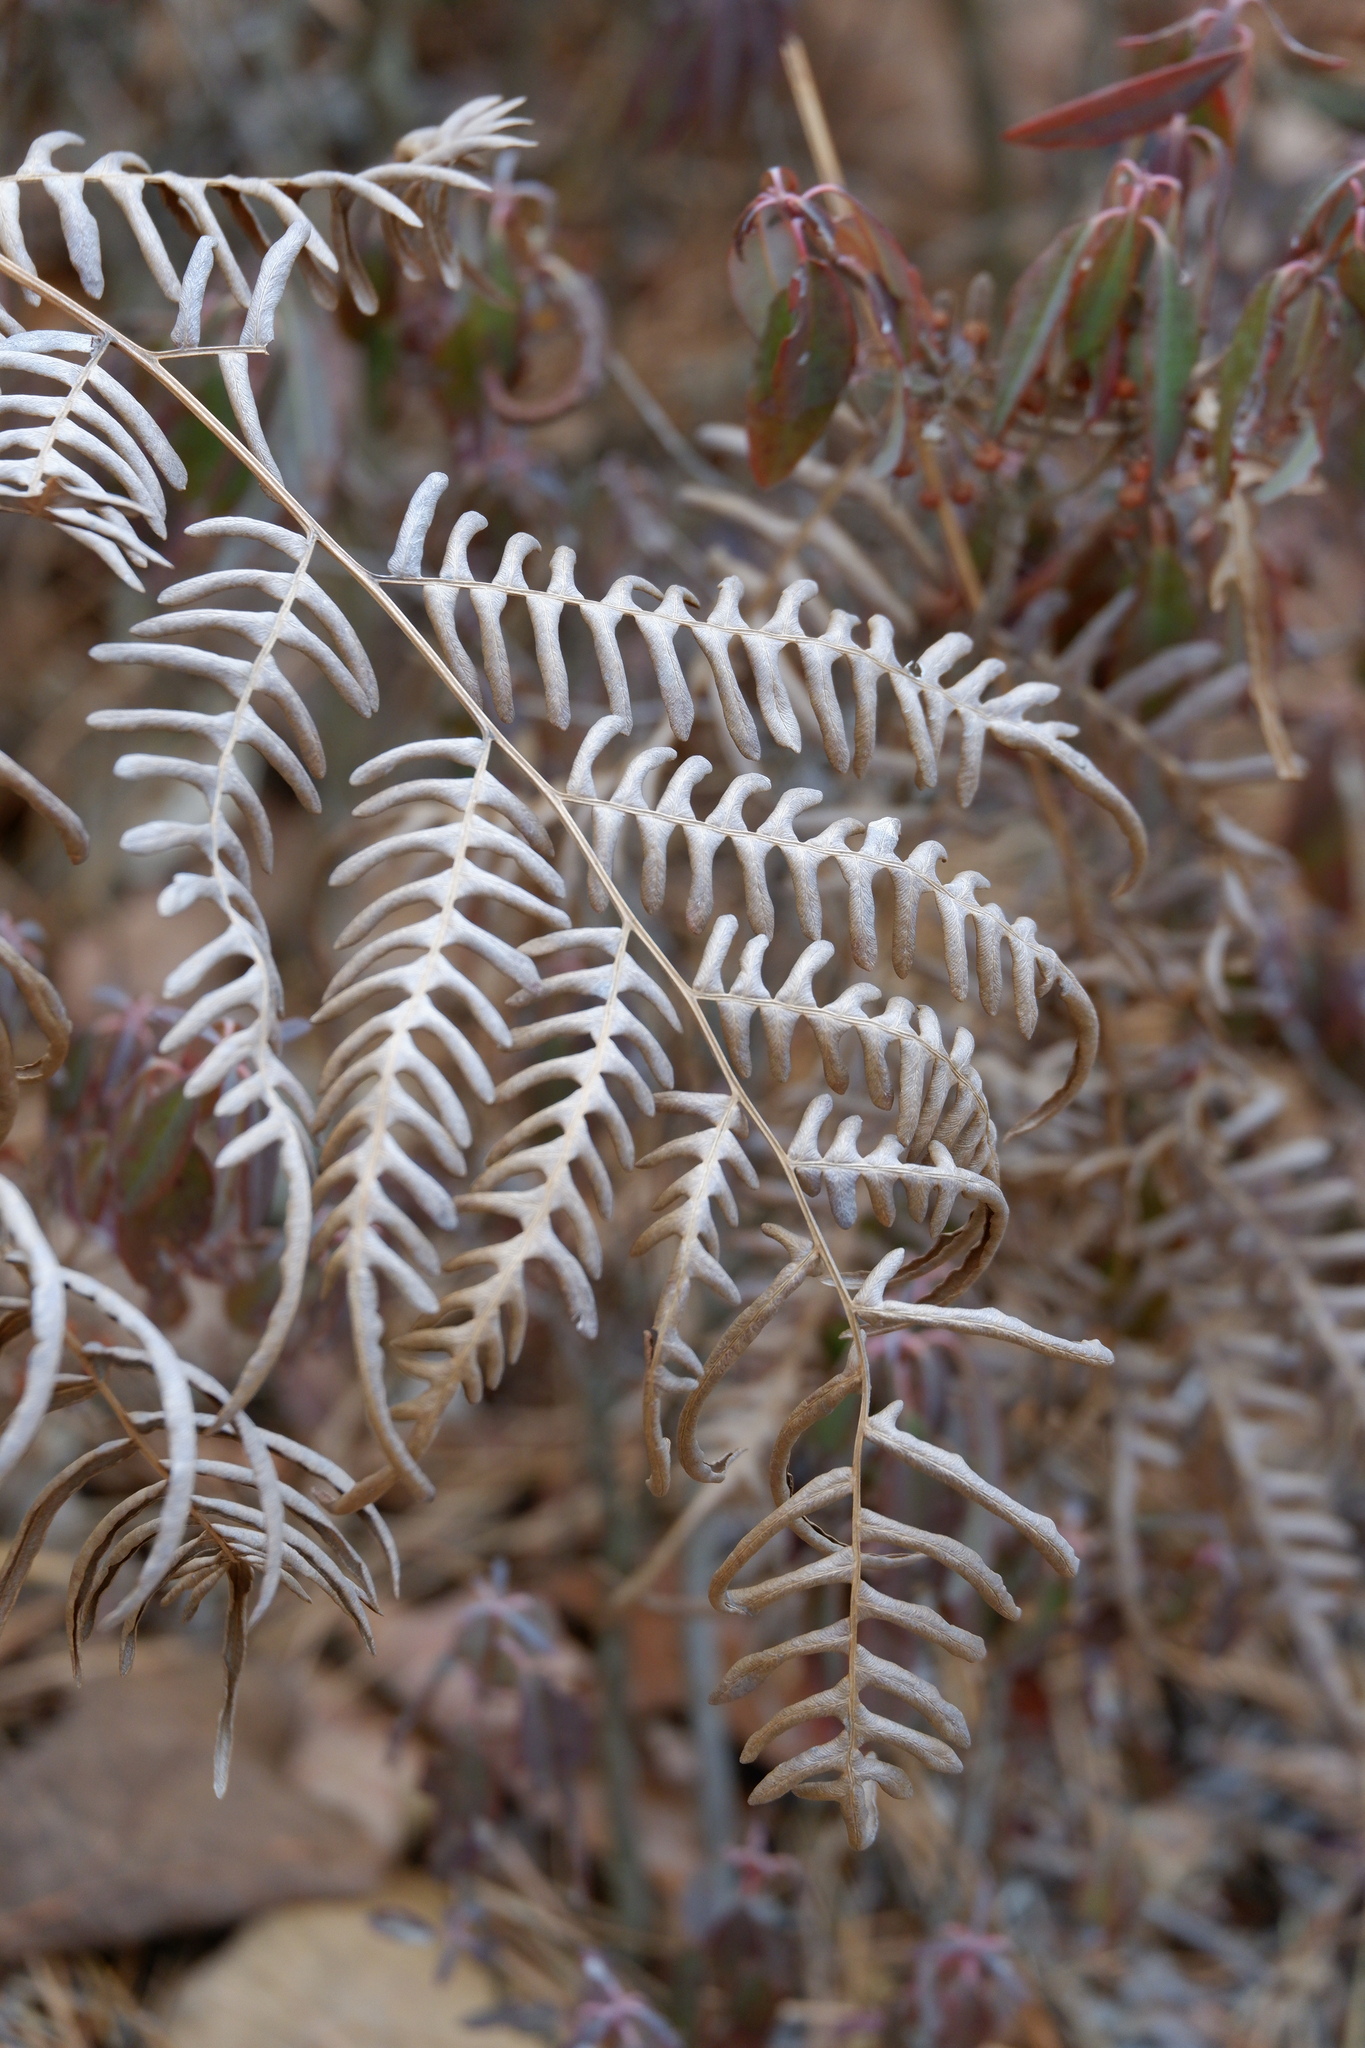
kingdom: Plantae
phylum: Tracheophyta
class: Polypodiopsida
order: Polypodiales
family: Dennstaedtiaceae
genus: Pteridium
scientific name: Pteridium
